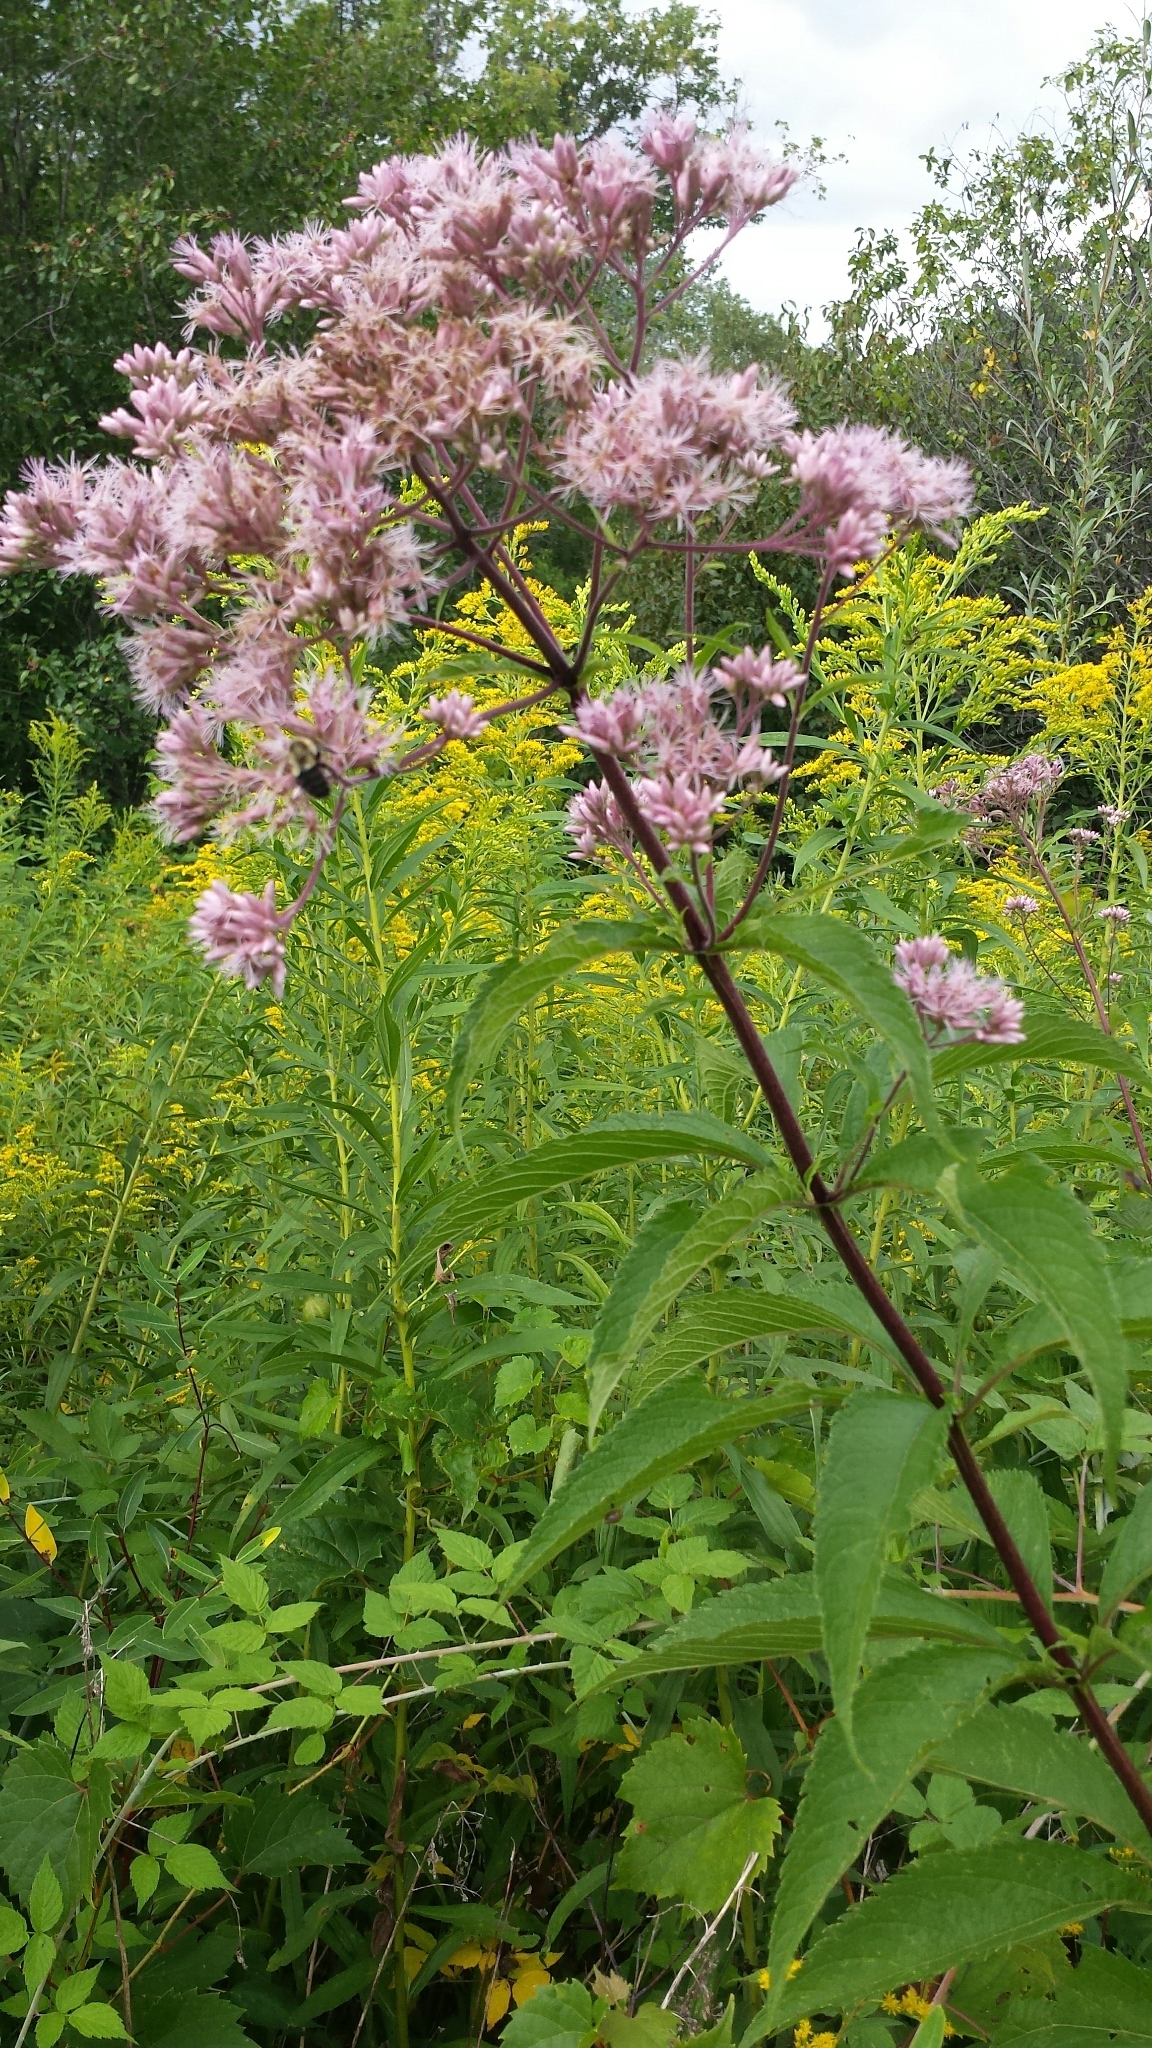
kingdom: Plantae
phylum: Tracheophyta
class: Magnoliopsida
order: Asterales
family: Asteraceae
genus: Eutrochium
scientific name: Eutrochium maculatum
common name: Spotted joe pye weed
